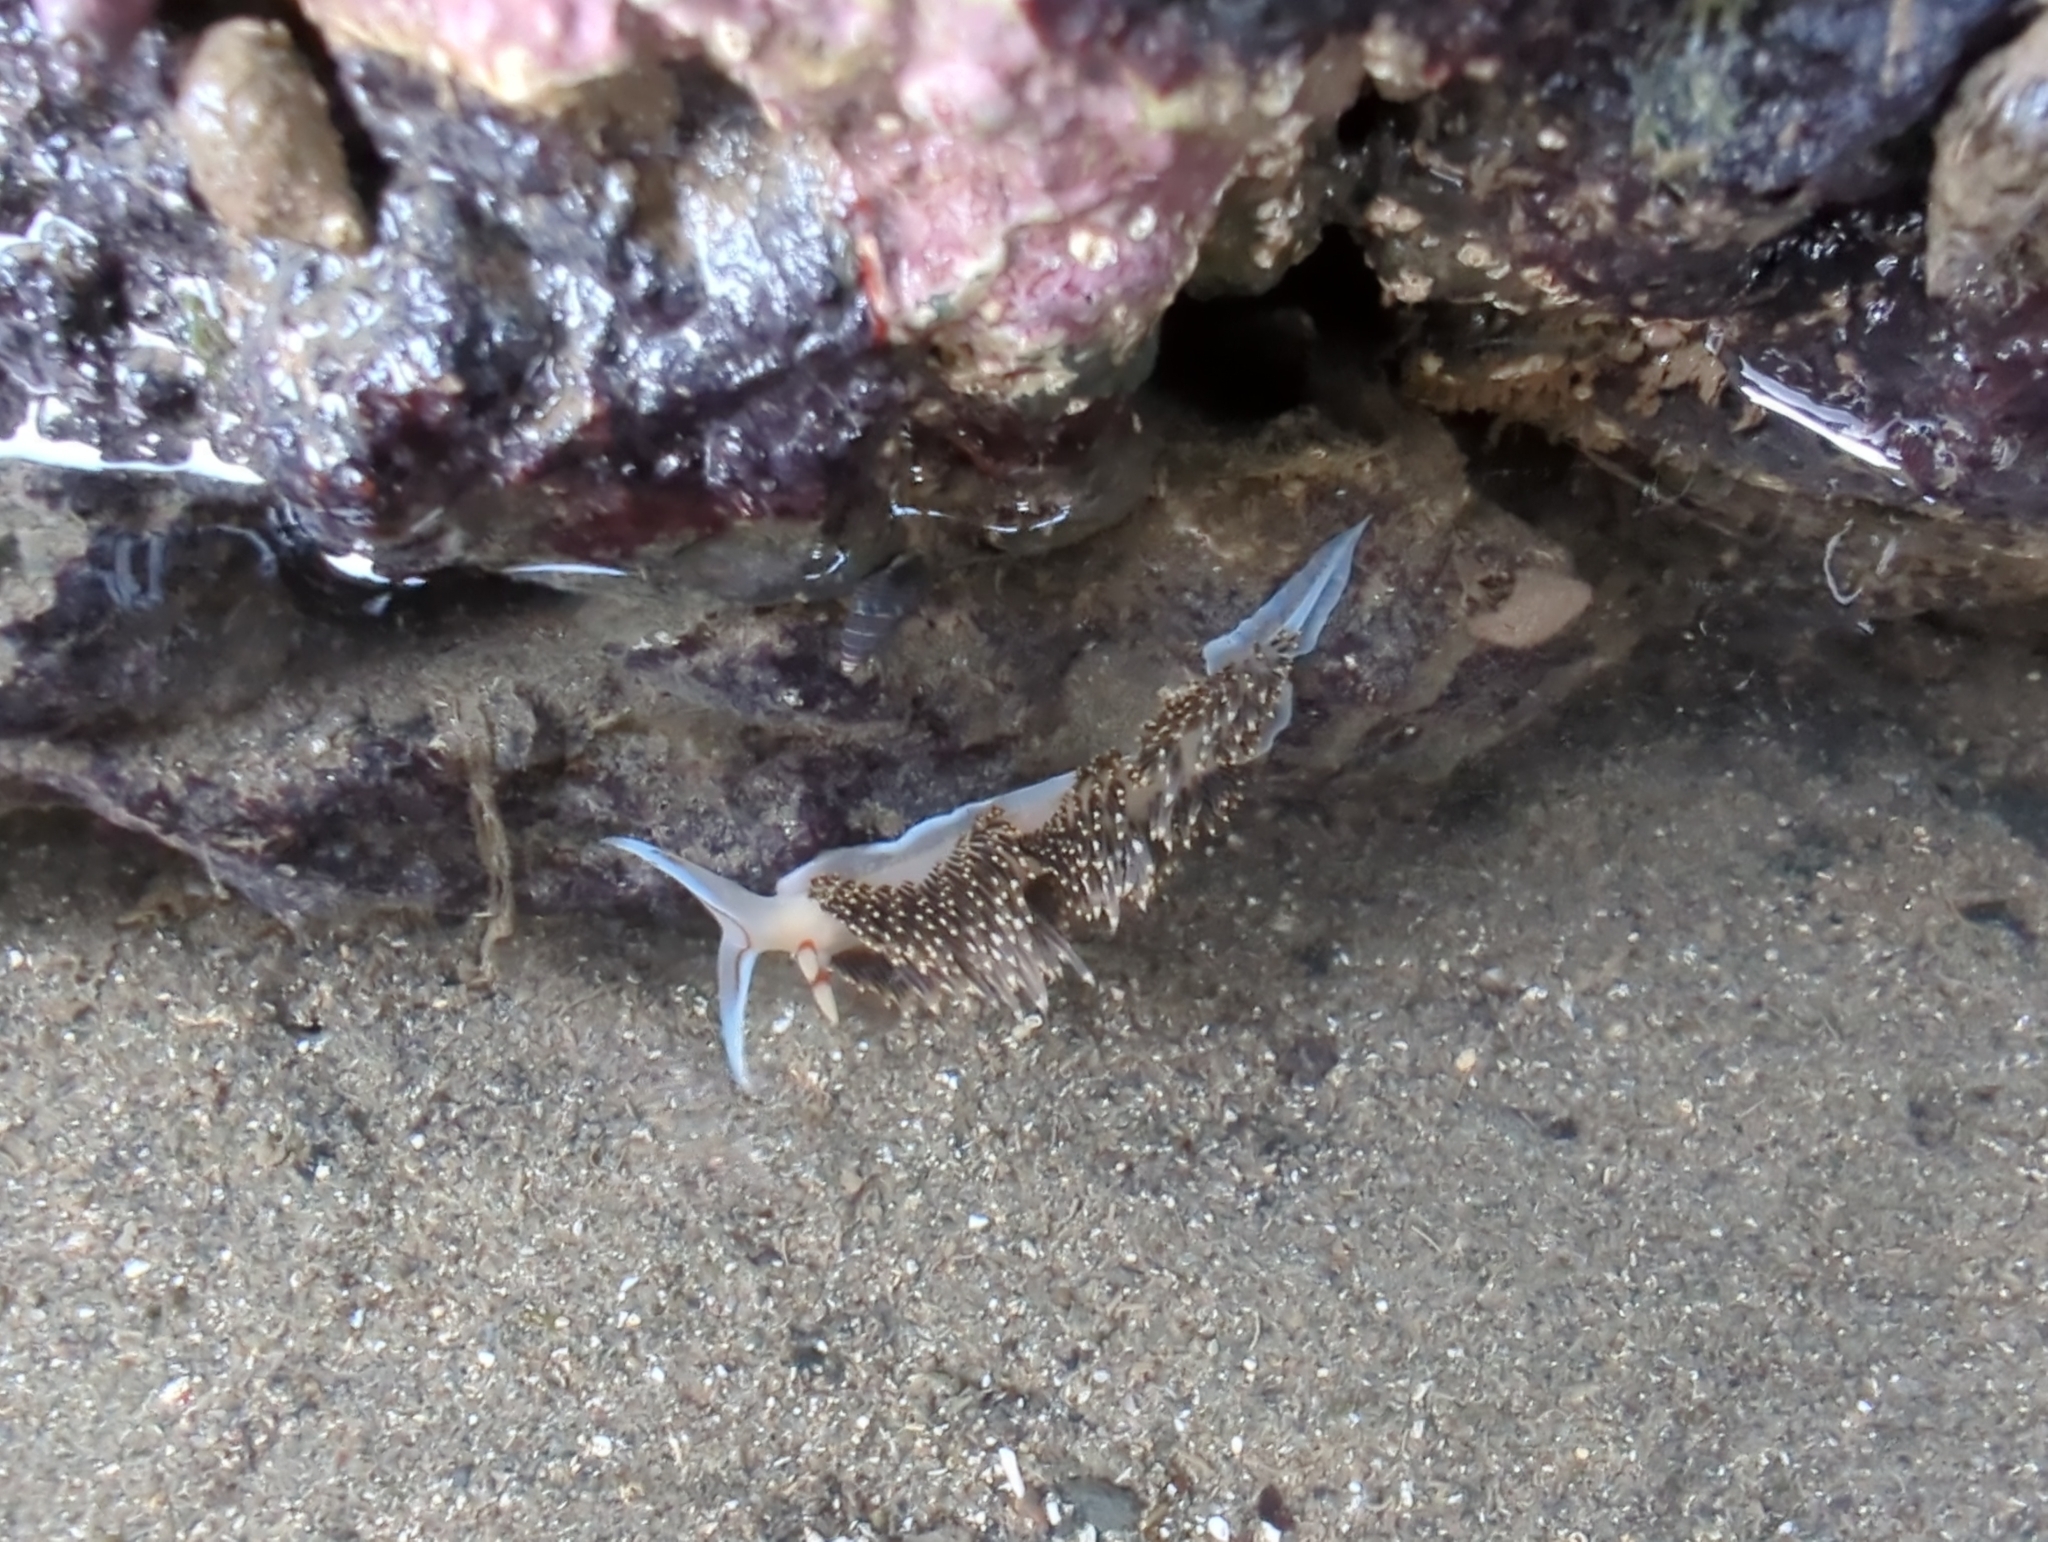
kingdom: Animalia
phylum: Mollusca
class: Gastropoda
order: Nudibranchia
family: Facelinidae
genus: Phidiana
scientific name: Phidiana hiltoni
